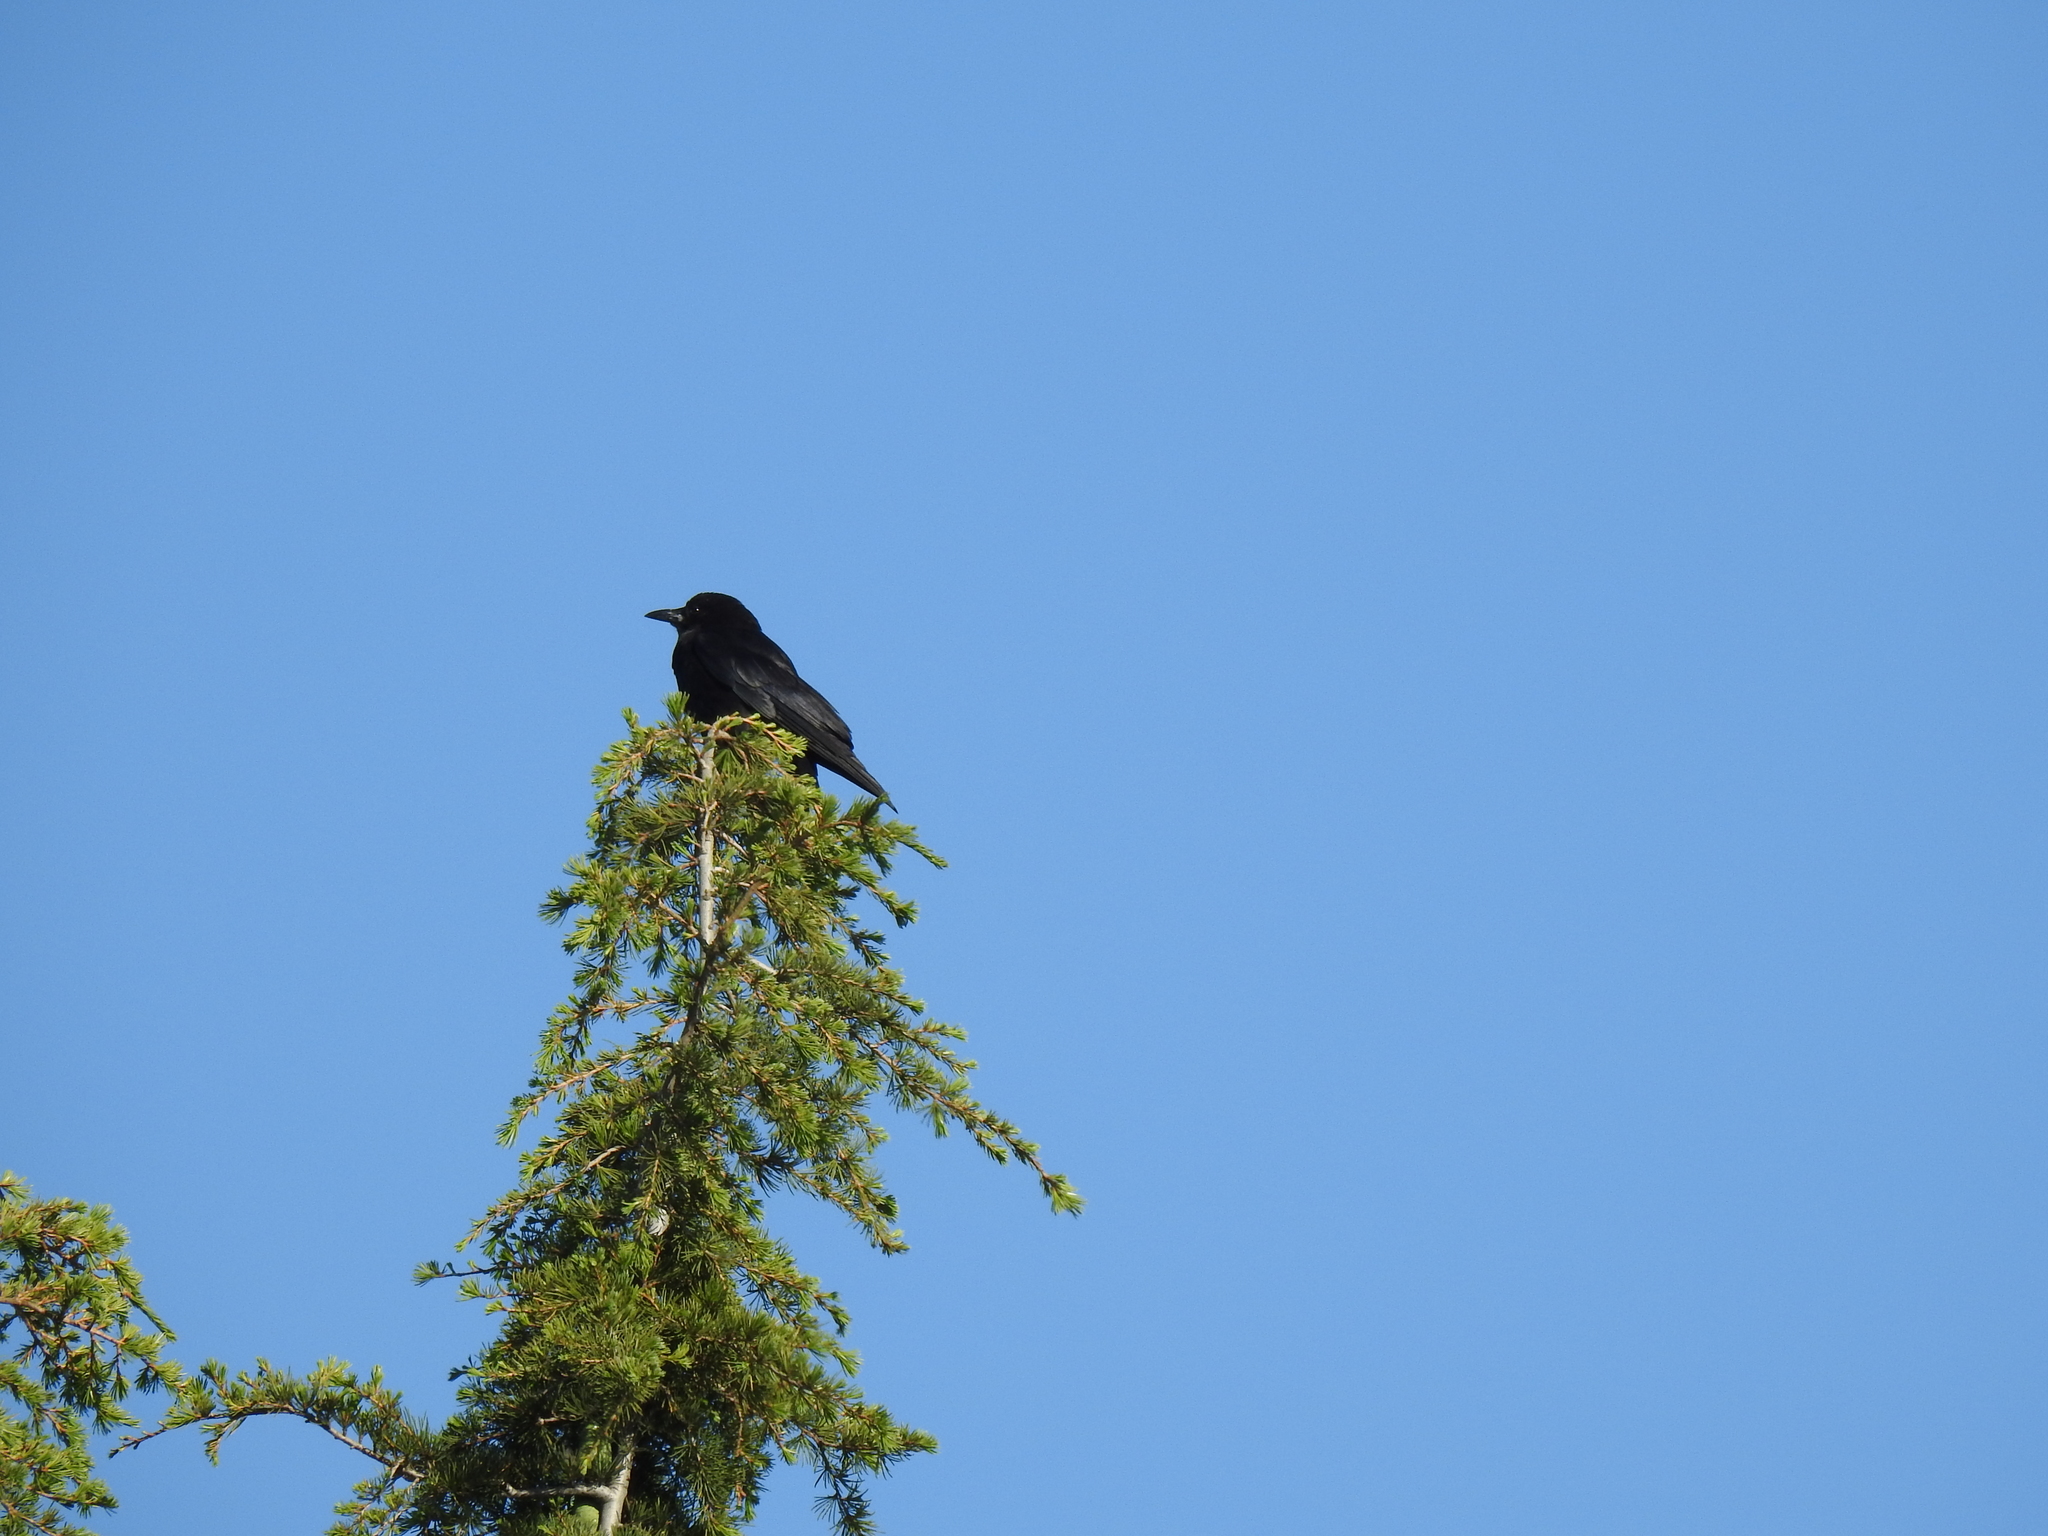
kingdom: Animalia
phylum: Chordata
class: Aves
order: Passeriformes
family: Corvidae
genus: Corvus
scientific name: Corvus brachyrhynchos
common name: American crow
